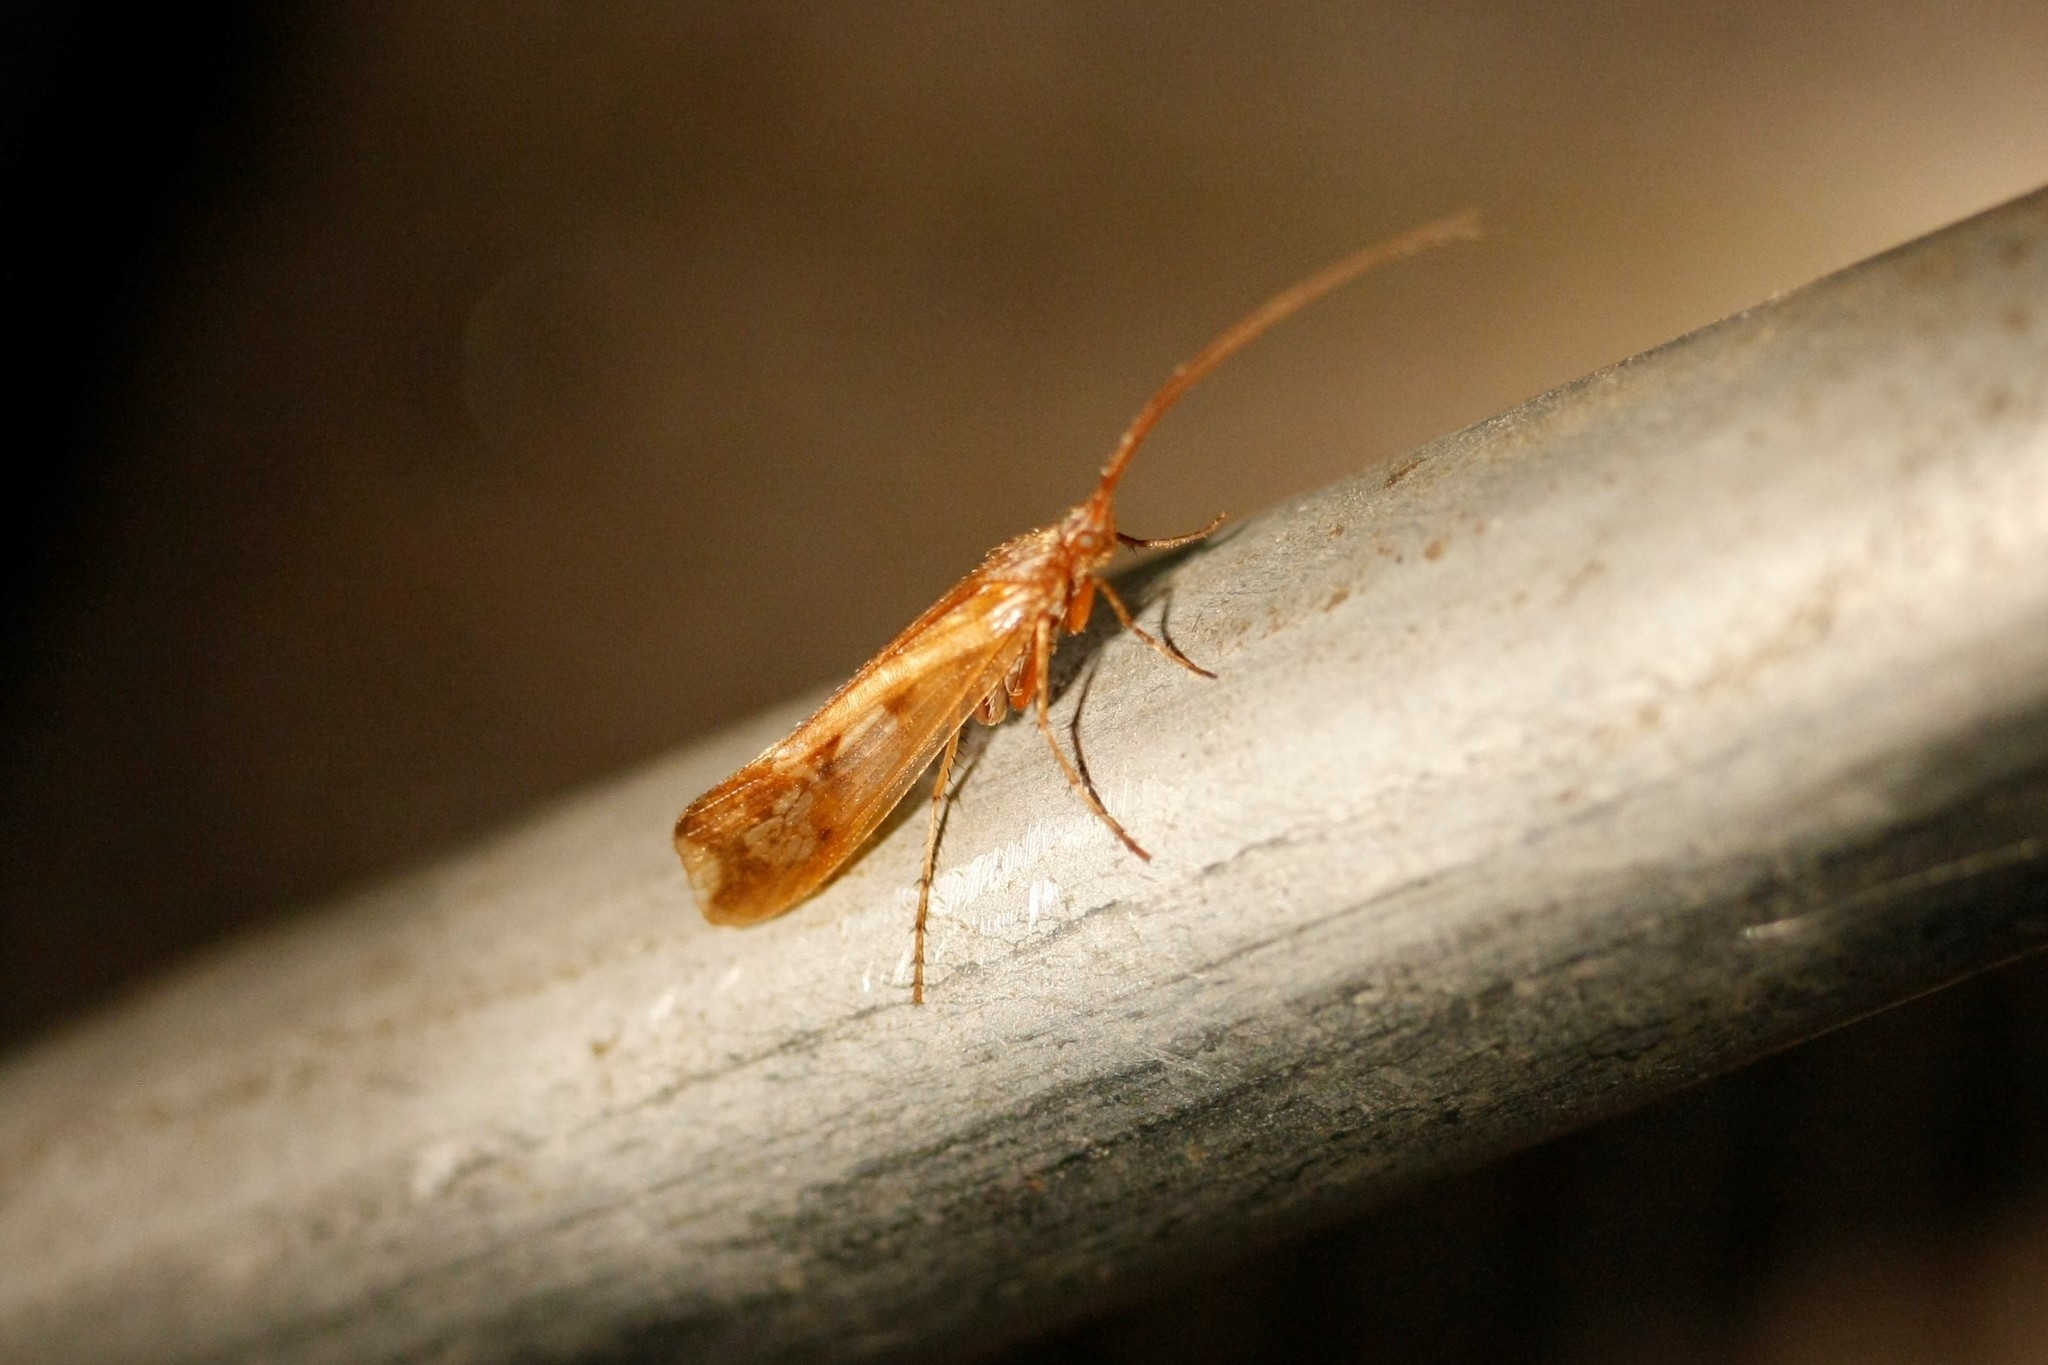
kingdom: Animalia
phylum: Arthropoda
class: Insecta
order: Trichoptera
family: Limnephilidae
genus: Limnephilus
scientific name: Limnephilus lunatus
